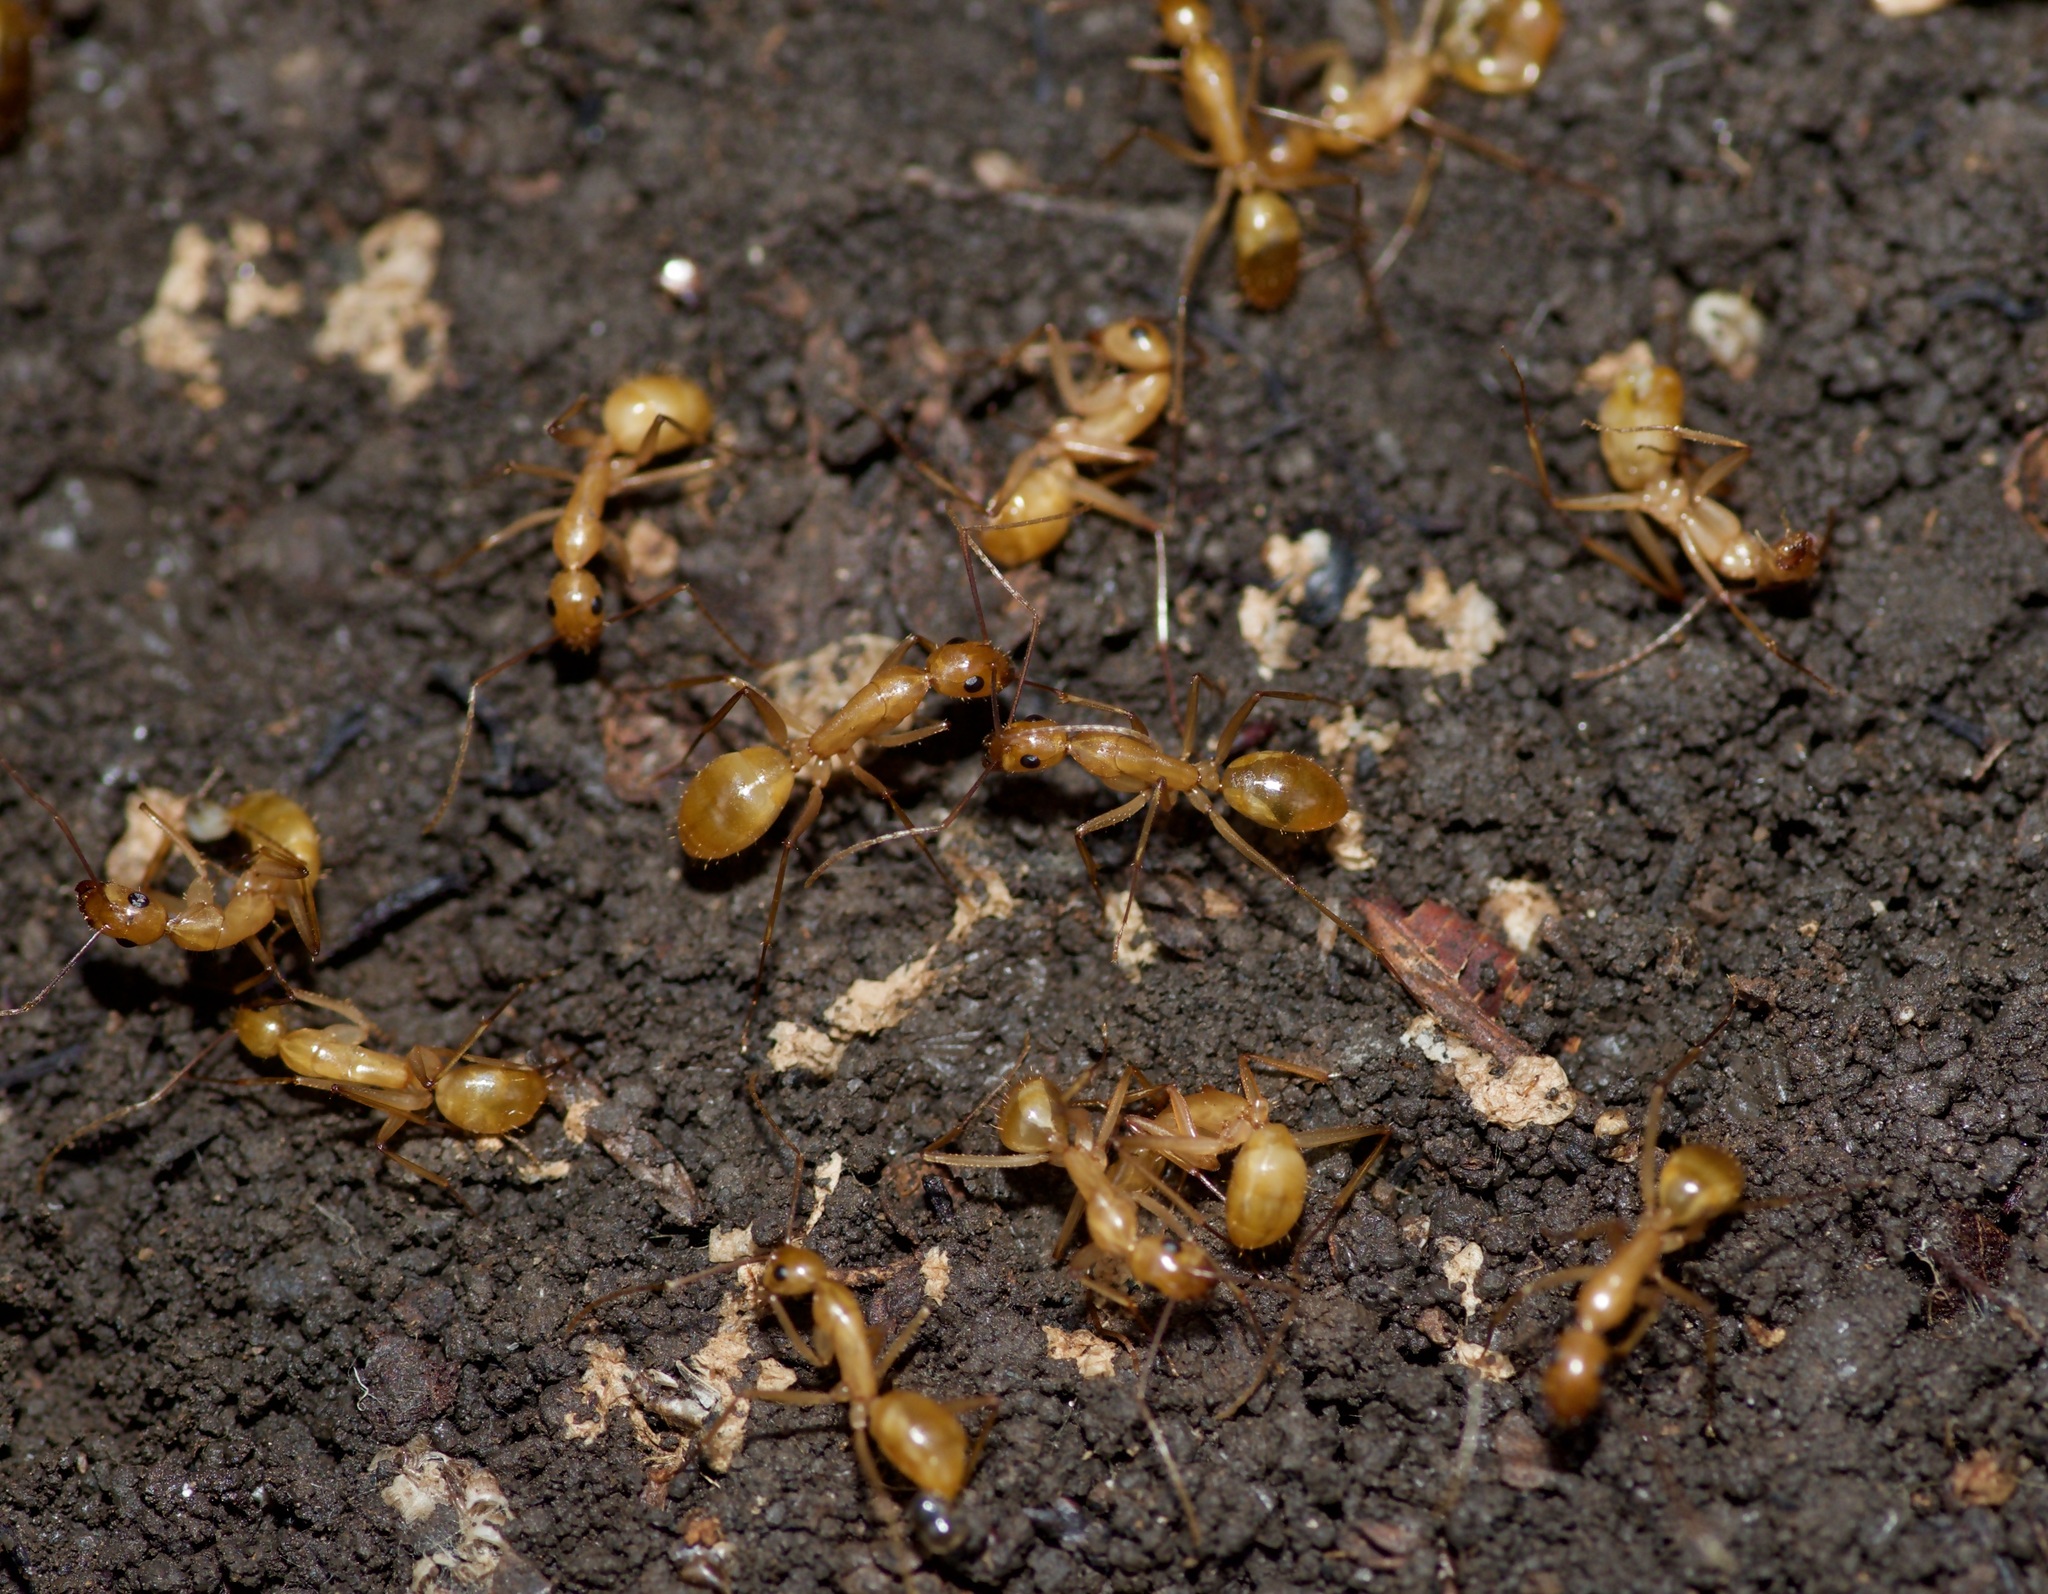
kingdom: Animalia
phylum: Arthropoda
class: Insecta
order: Hymenoptera
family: Formicidae
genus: Camponotus
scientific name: Camponotus festinatus
